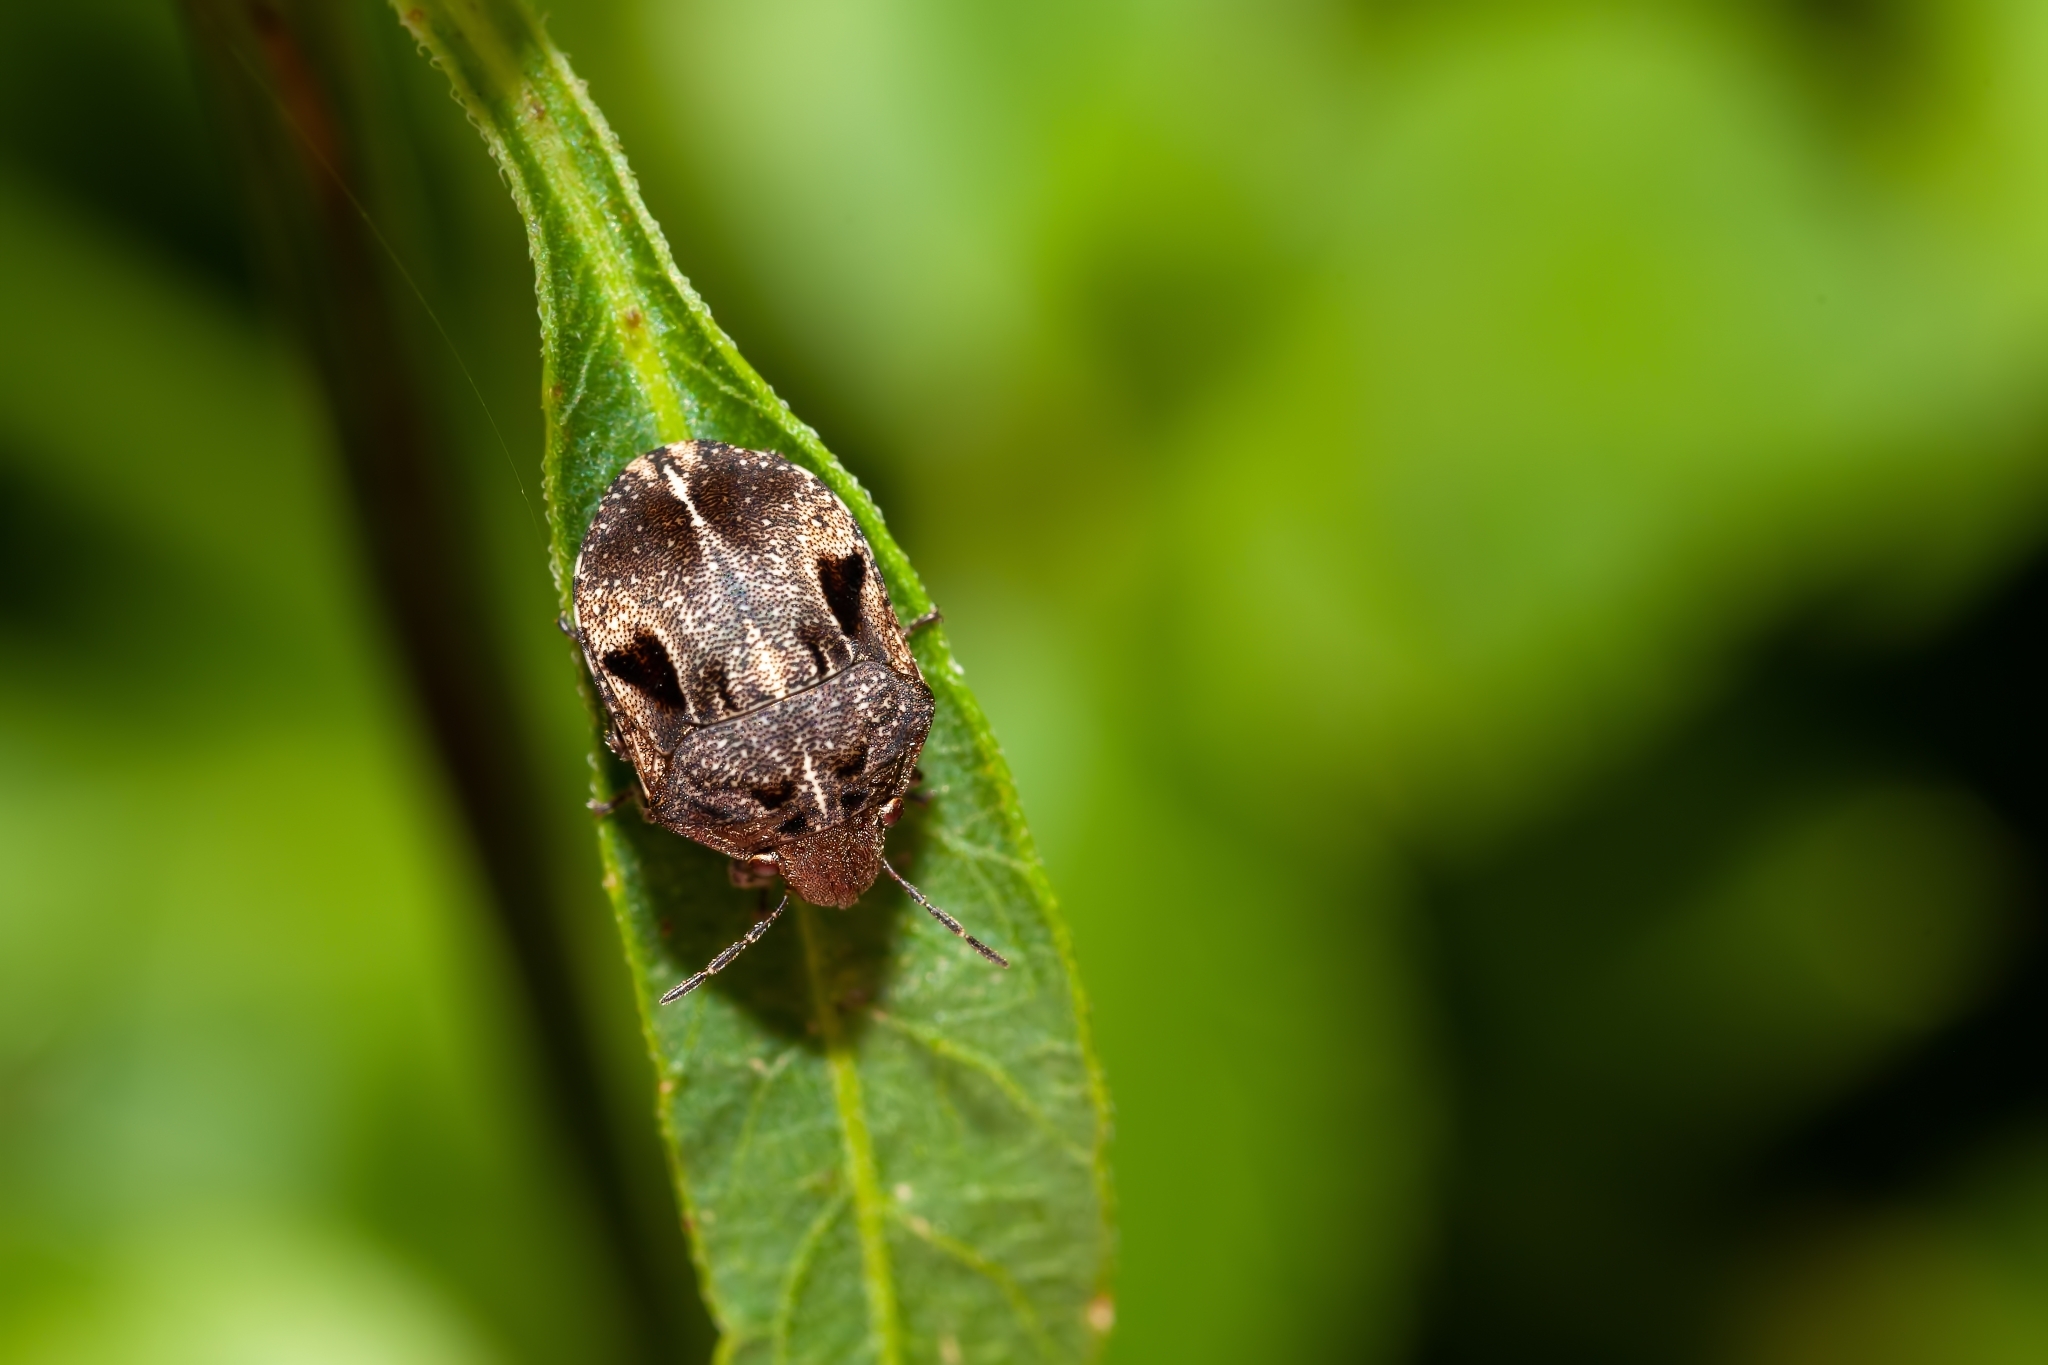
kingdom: Animalia
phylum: Arthropoda
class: Insecta
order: Hemiptera
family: Scutelleridae
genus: Homaemus
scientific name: Homaemus proteus
